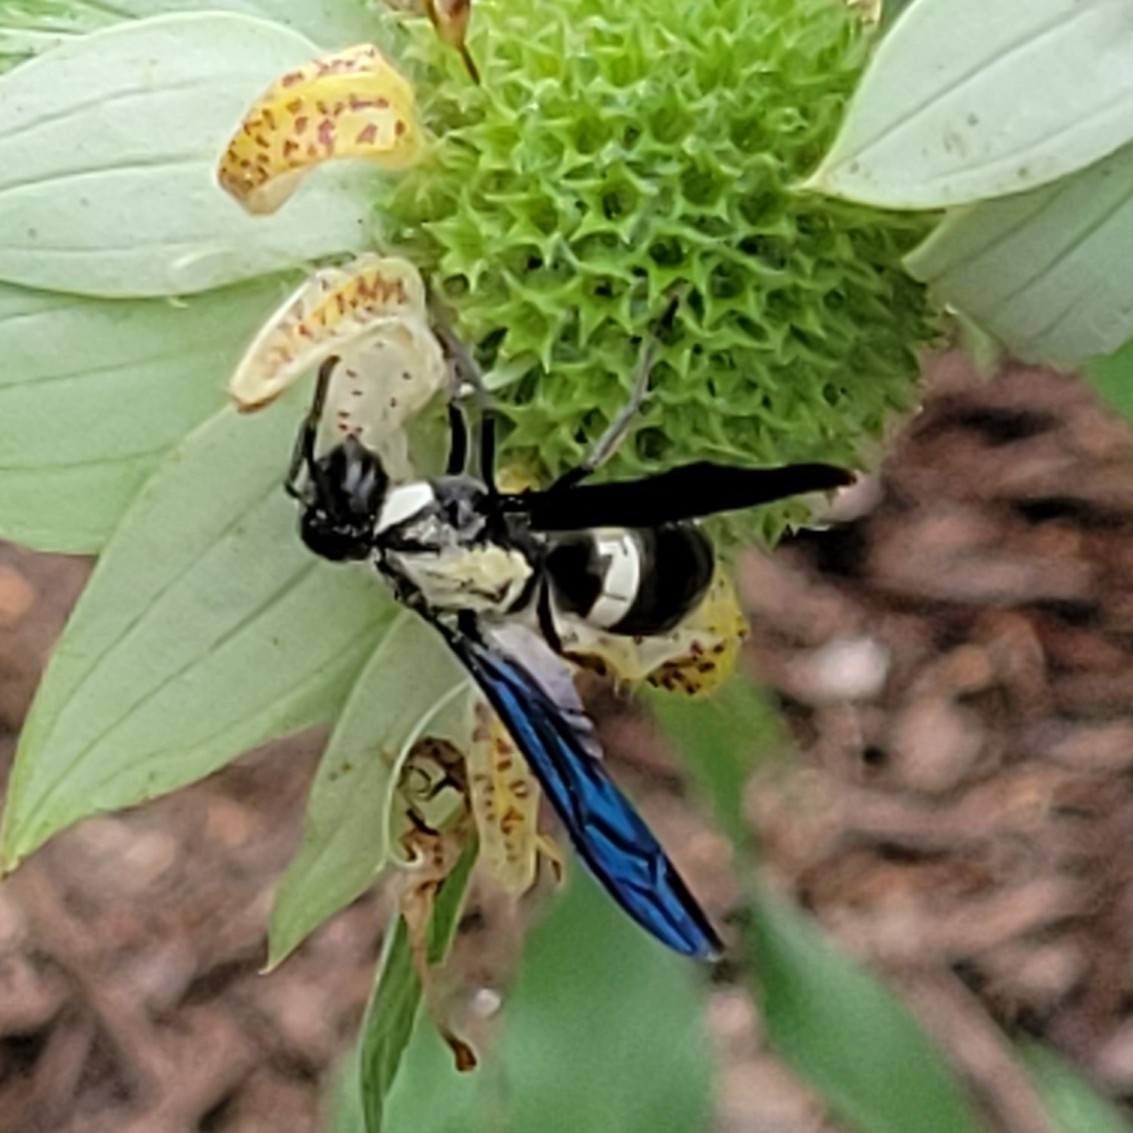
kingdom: Animalia
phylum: Arthropoda
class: Insecta
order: Hymenoptera
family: Eumenidae
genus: Monobia
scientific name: Monobia quadridens
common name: Four-toothed mason wasp
